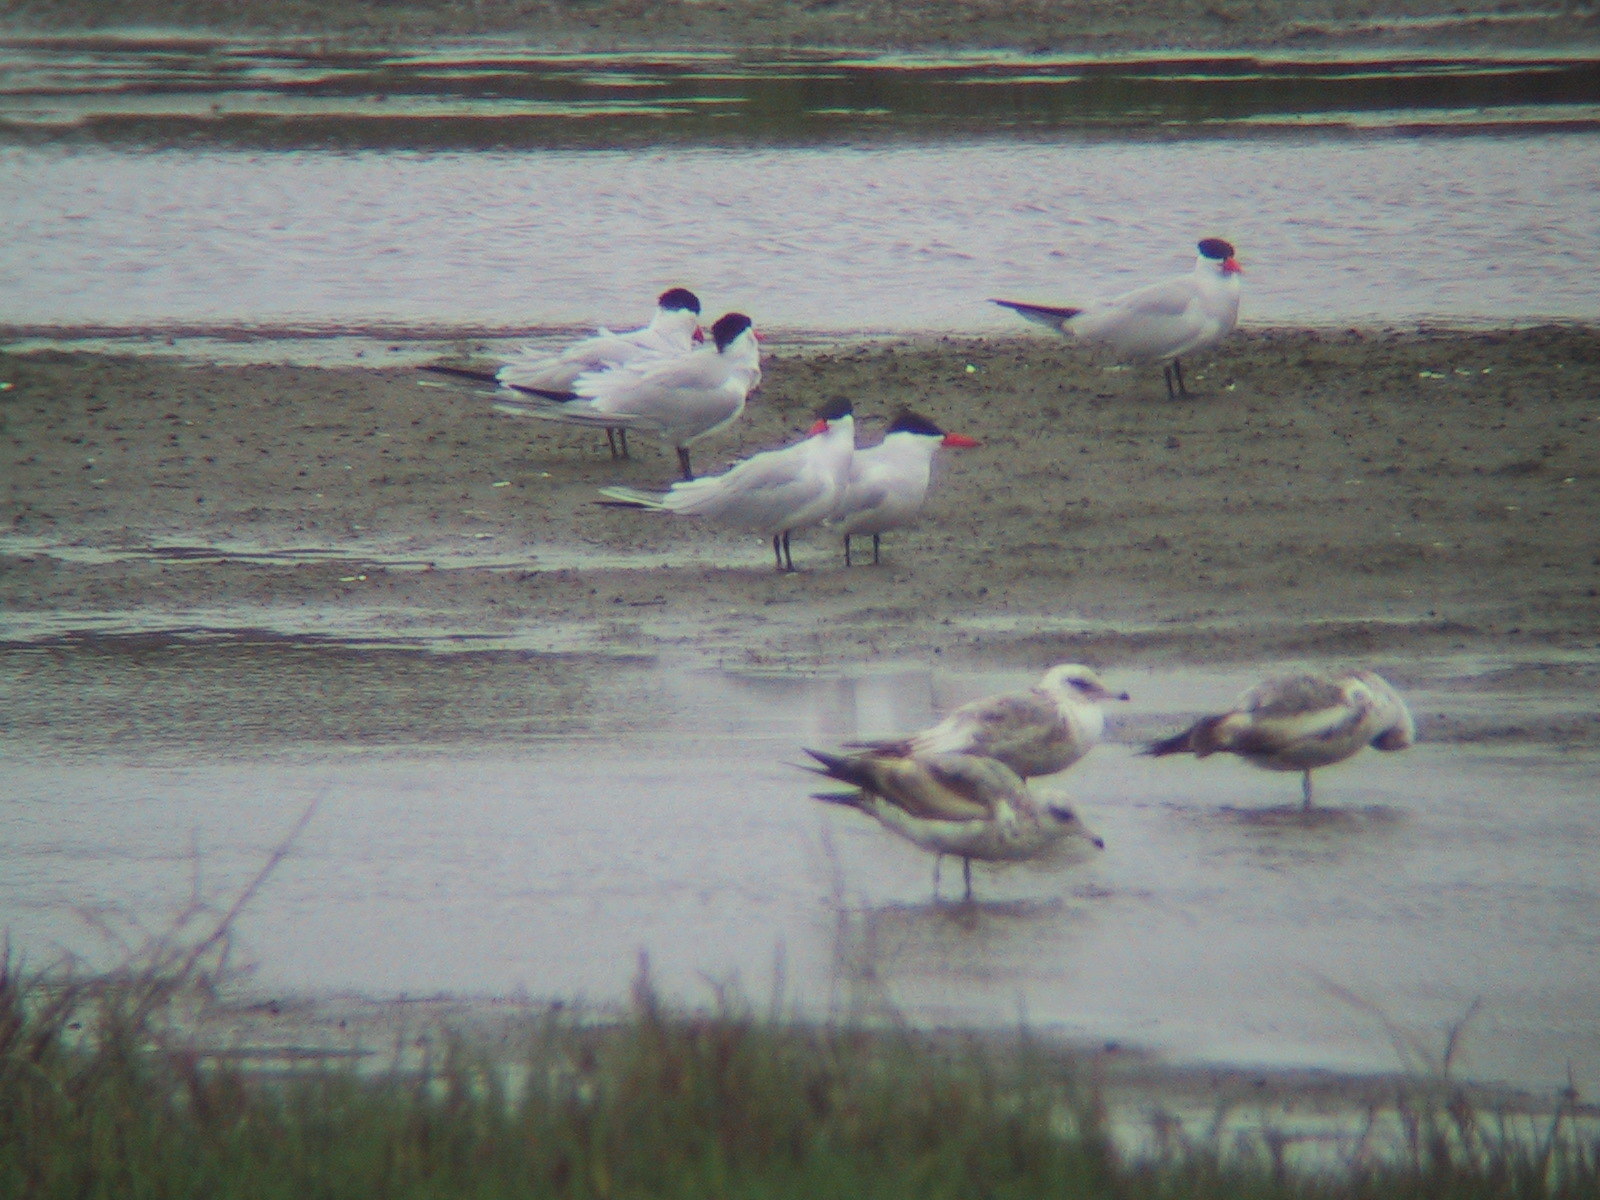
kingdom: Animalia
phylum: Chordata
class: Aves
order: Charadriiformes
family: Laridae
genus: Hydroprogne
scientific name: Hydroprogne caspia
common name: Caspian tern
